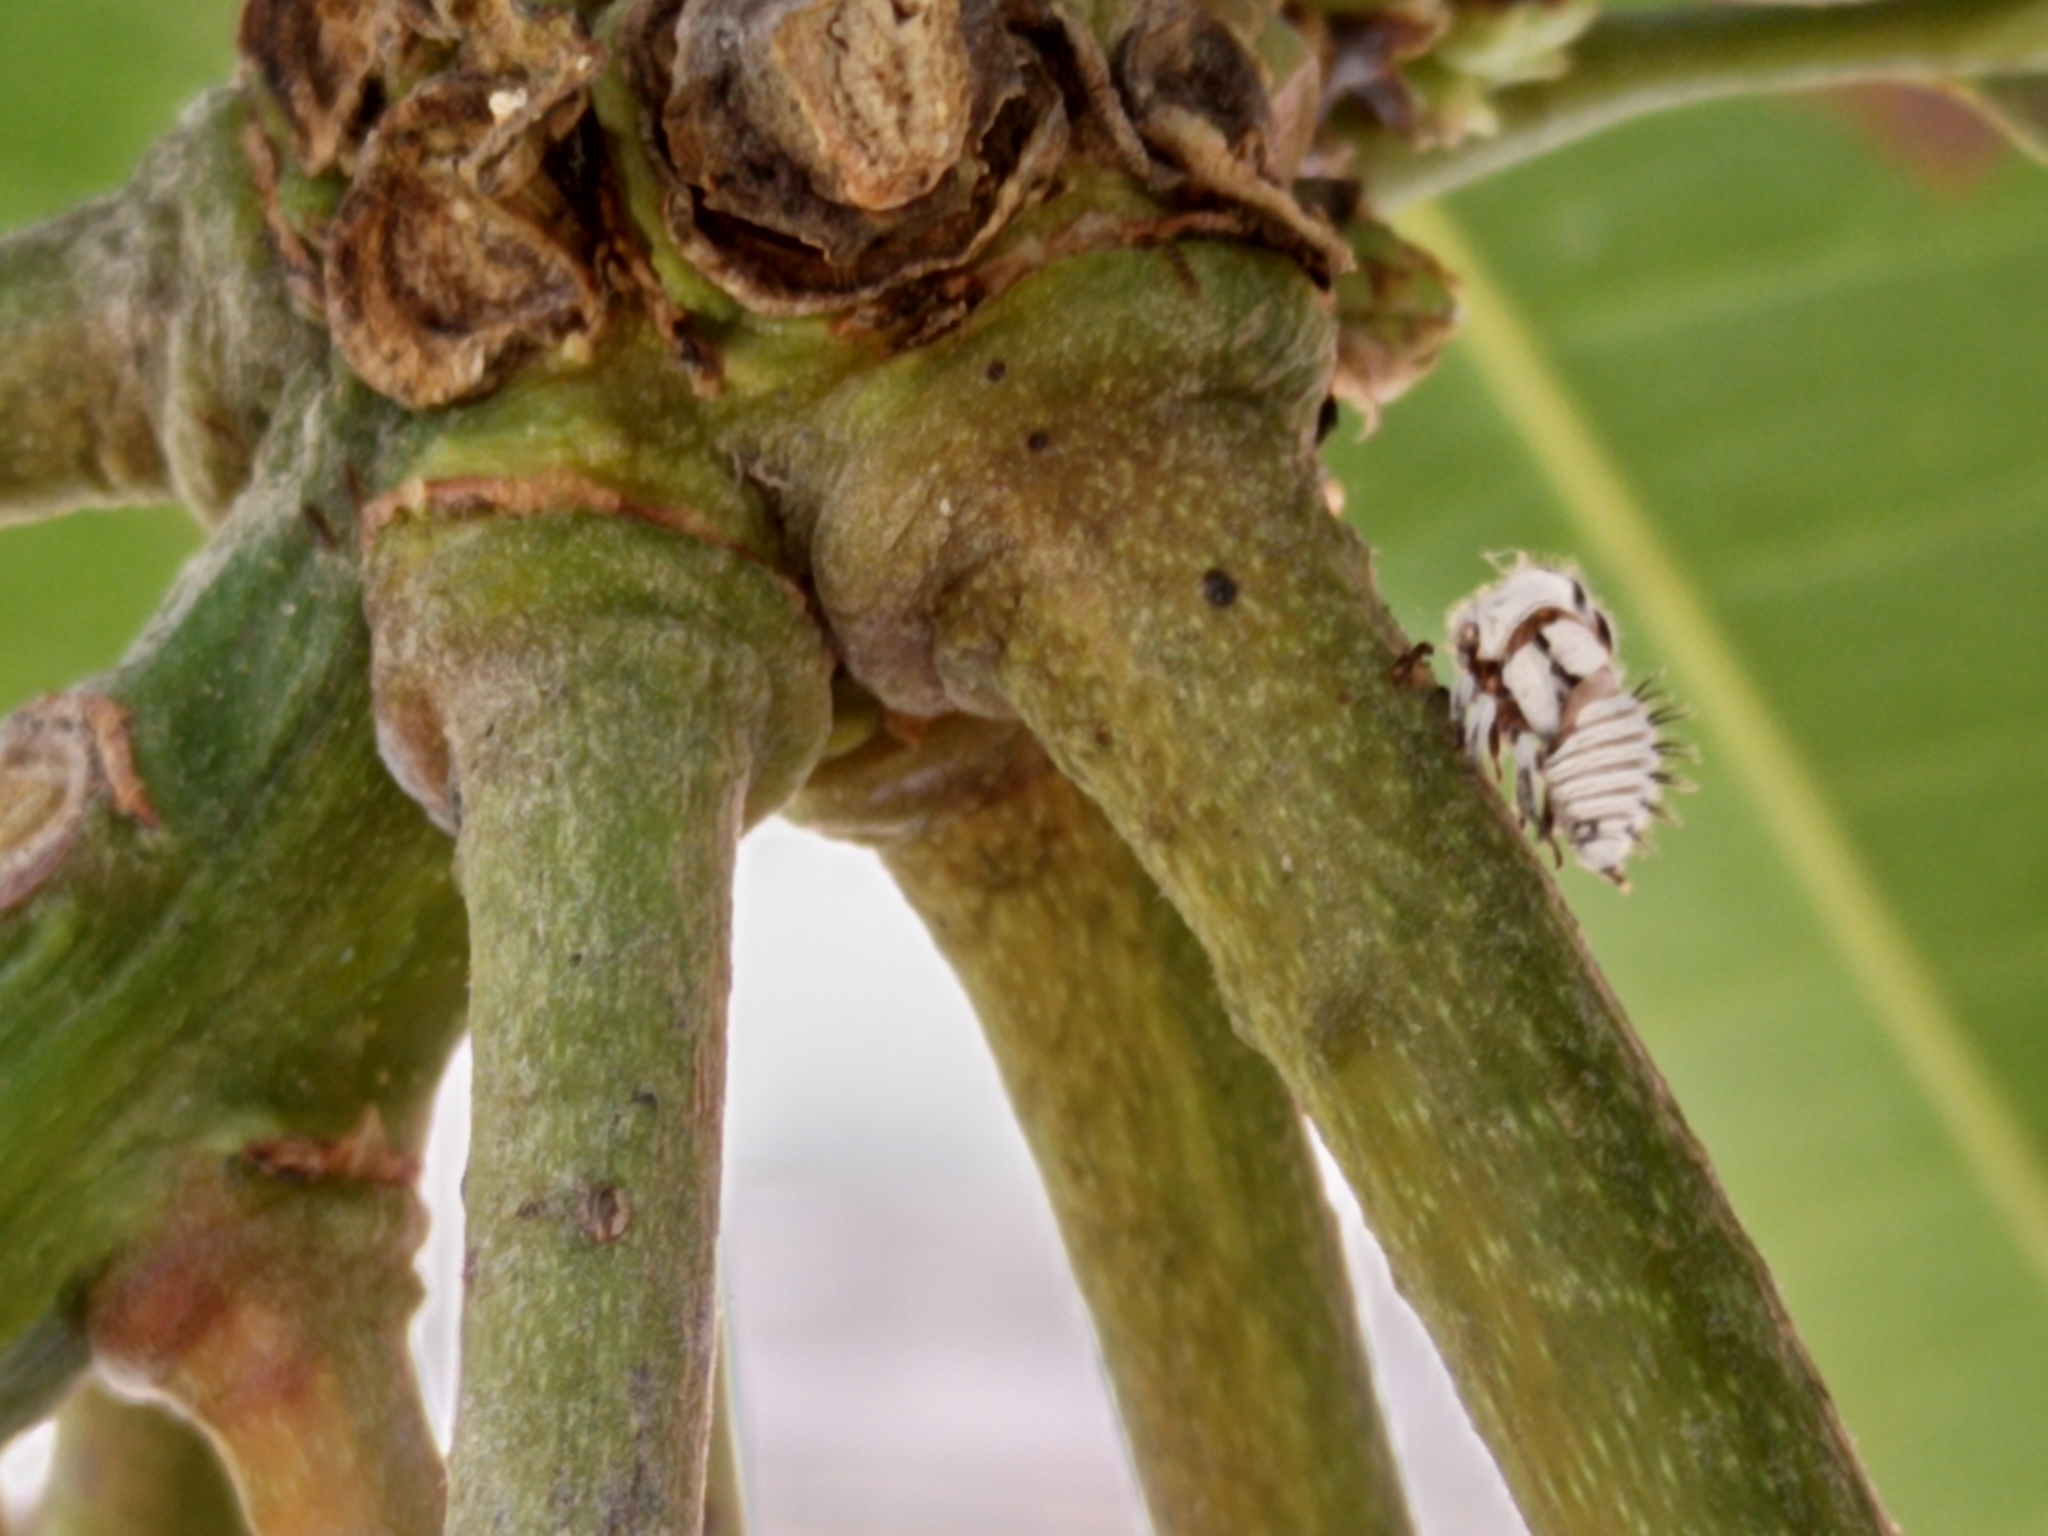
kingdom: Animalia
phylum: Arthropoda
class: Insecta
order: Hemiptera
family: Membracidae
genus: Membracis
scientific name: Membracis mexicana
